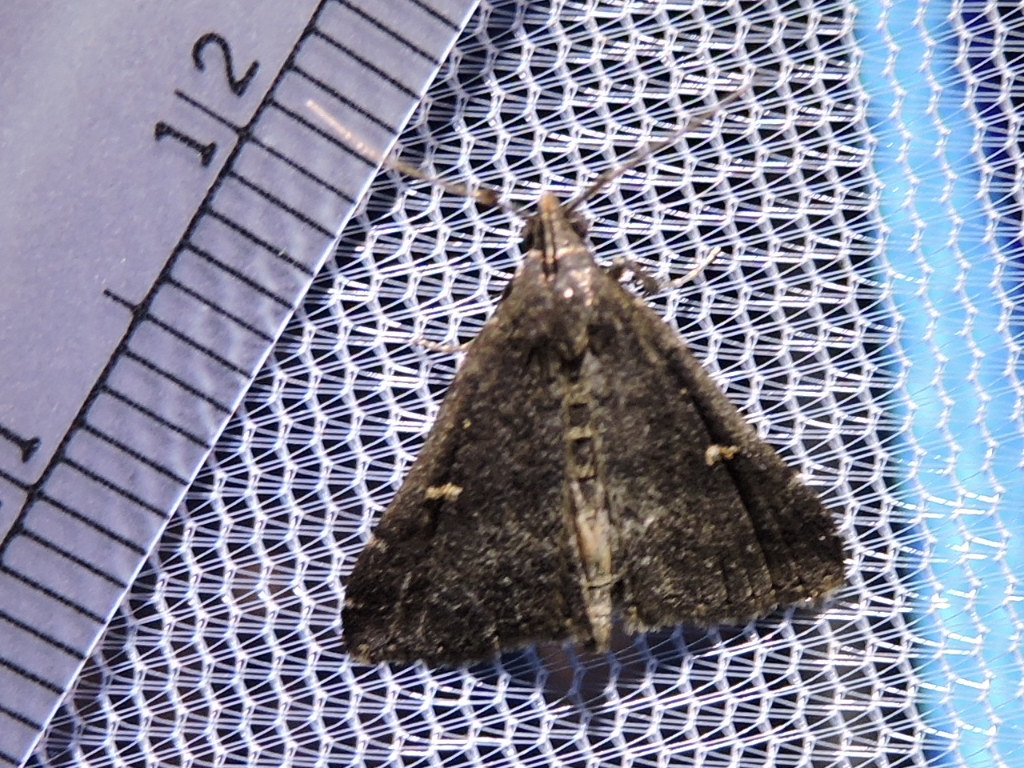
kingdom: Animalia
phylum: Arthropoda
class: Insecta
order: Lepidoptera
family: Erebidae
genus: Tetanolita
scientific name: Tetanolita mynesalis
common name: Smoky tetanolita moth
